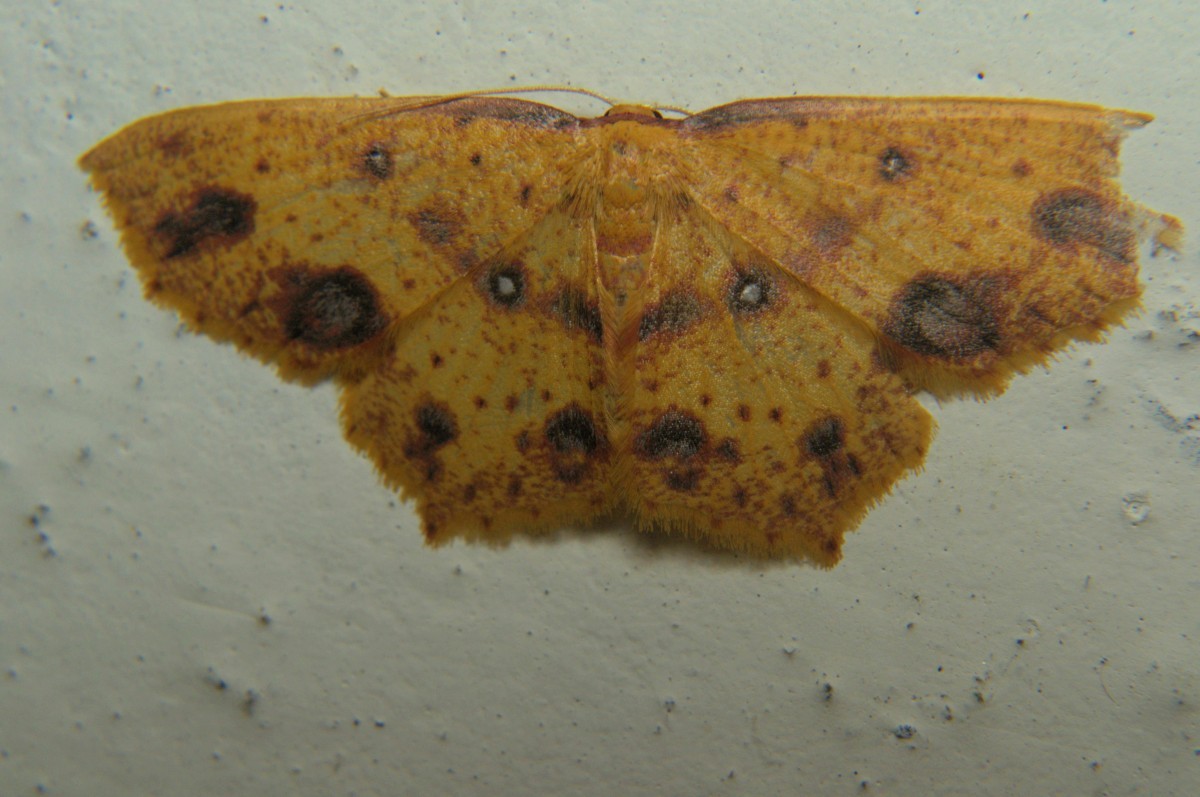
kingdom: Animalia
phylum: Arthropoda
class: Insecta
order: Lepidoptera
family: Geometridae
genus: Synegiodes
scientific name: Synegiodes histrionaria
